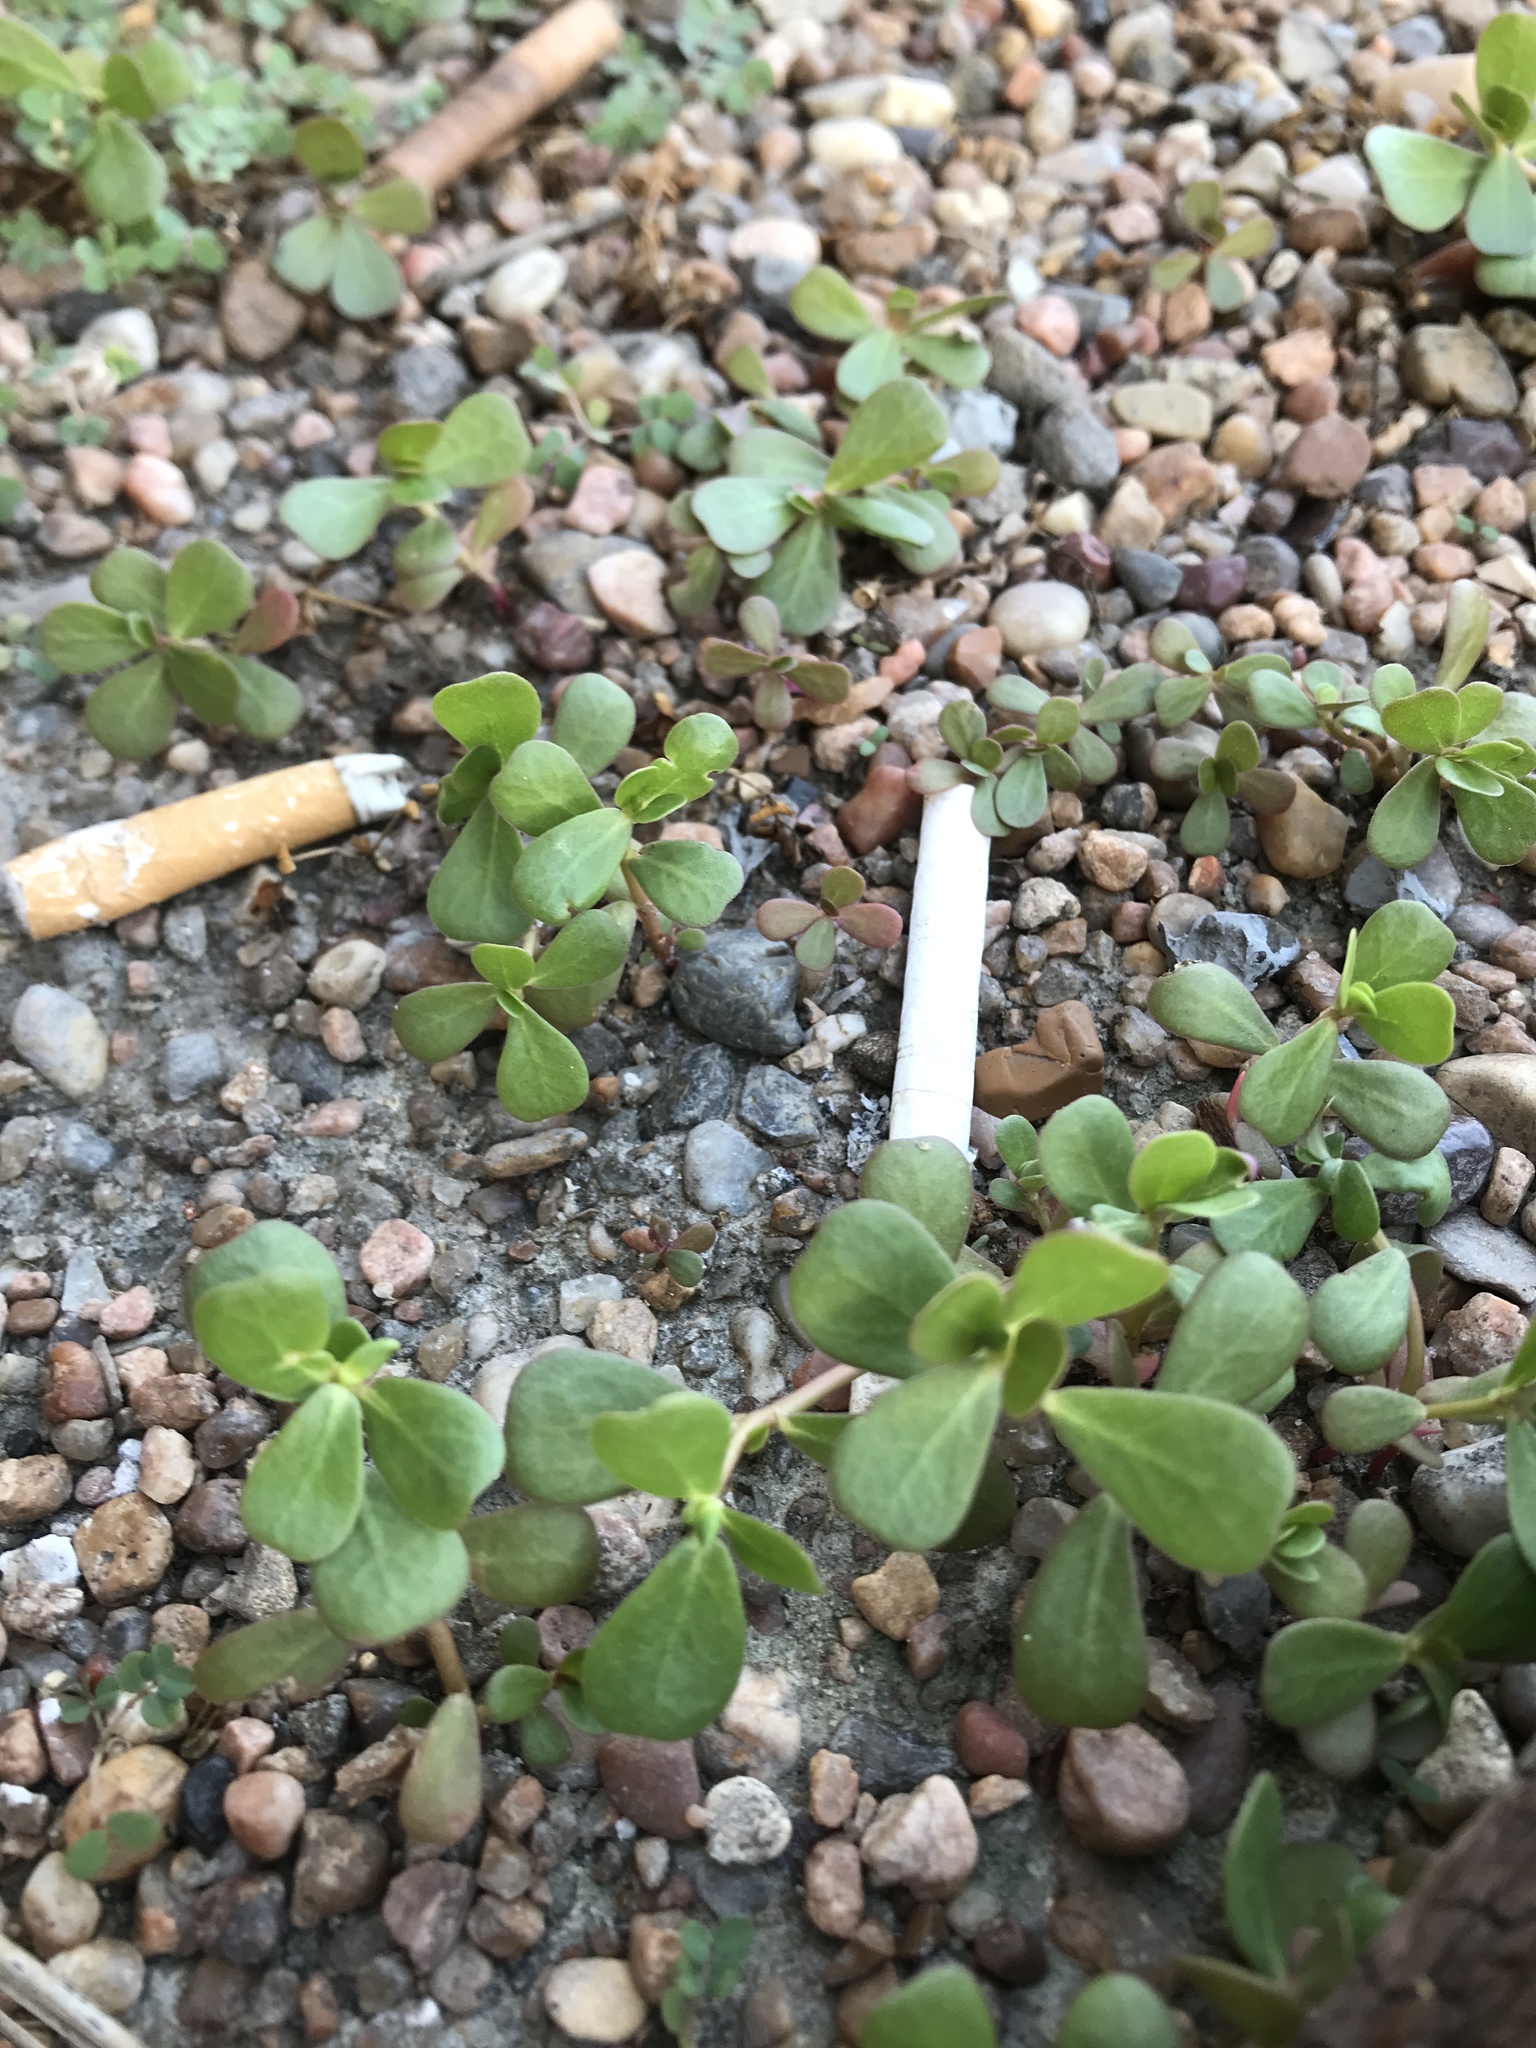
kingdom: Plantae
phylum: Tracheophyta
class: Magnoliopsida
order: Caryophyllales
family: Portulacaceae
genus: Portulaca
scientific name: Portulaca oleracea
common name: Common purslane
